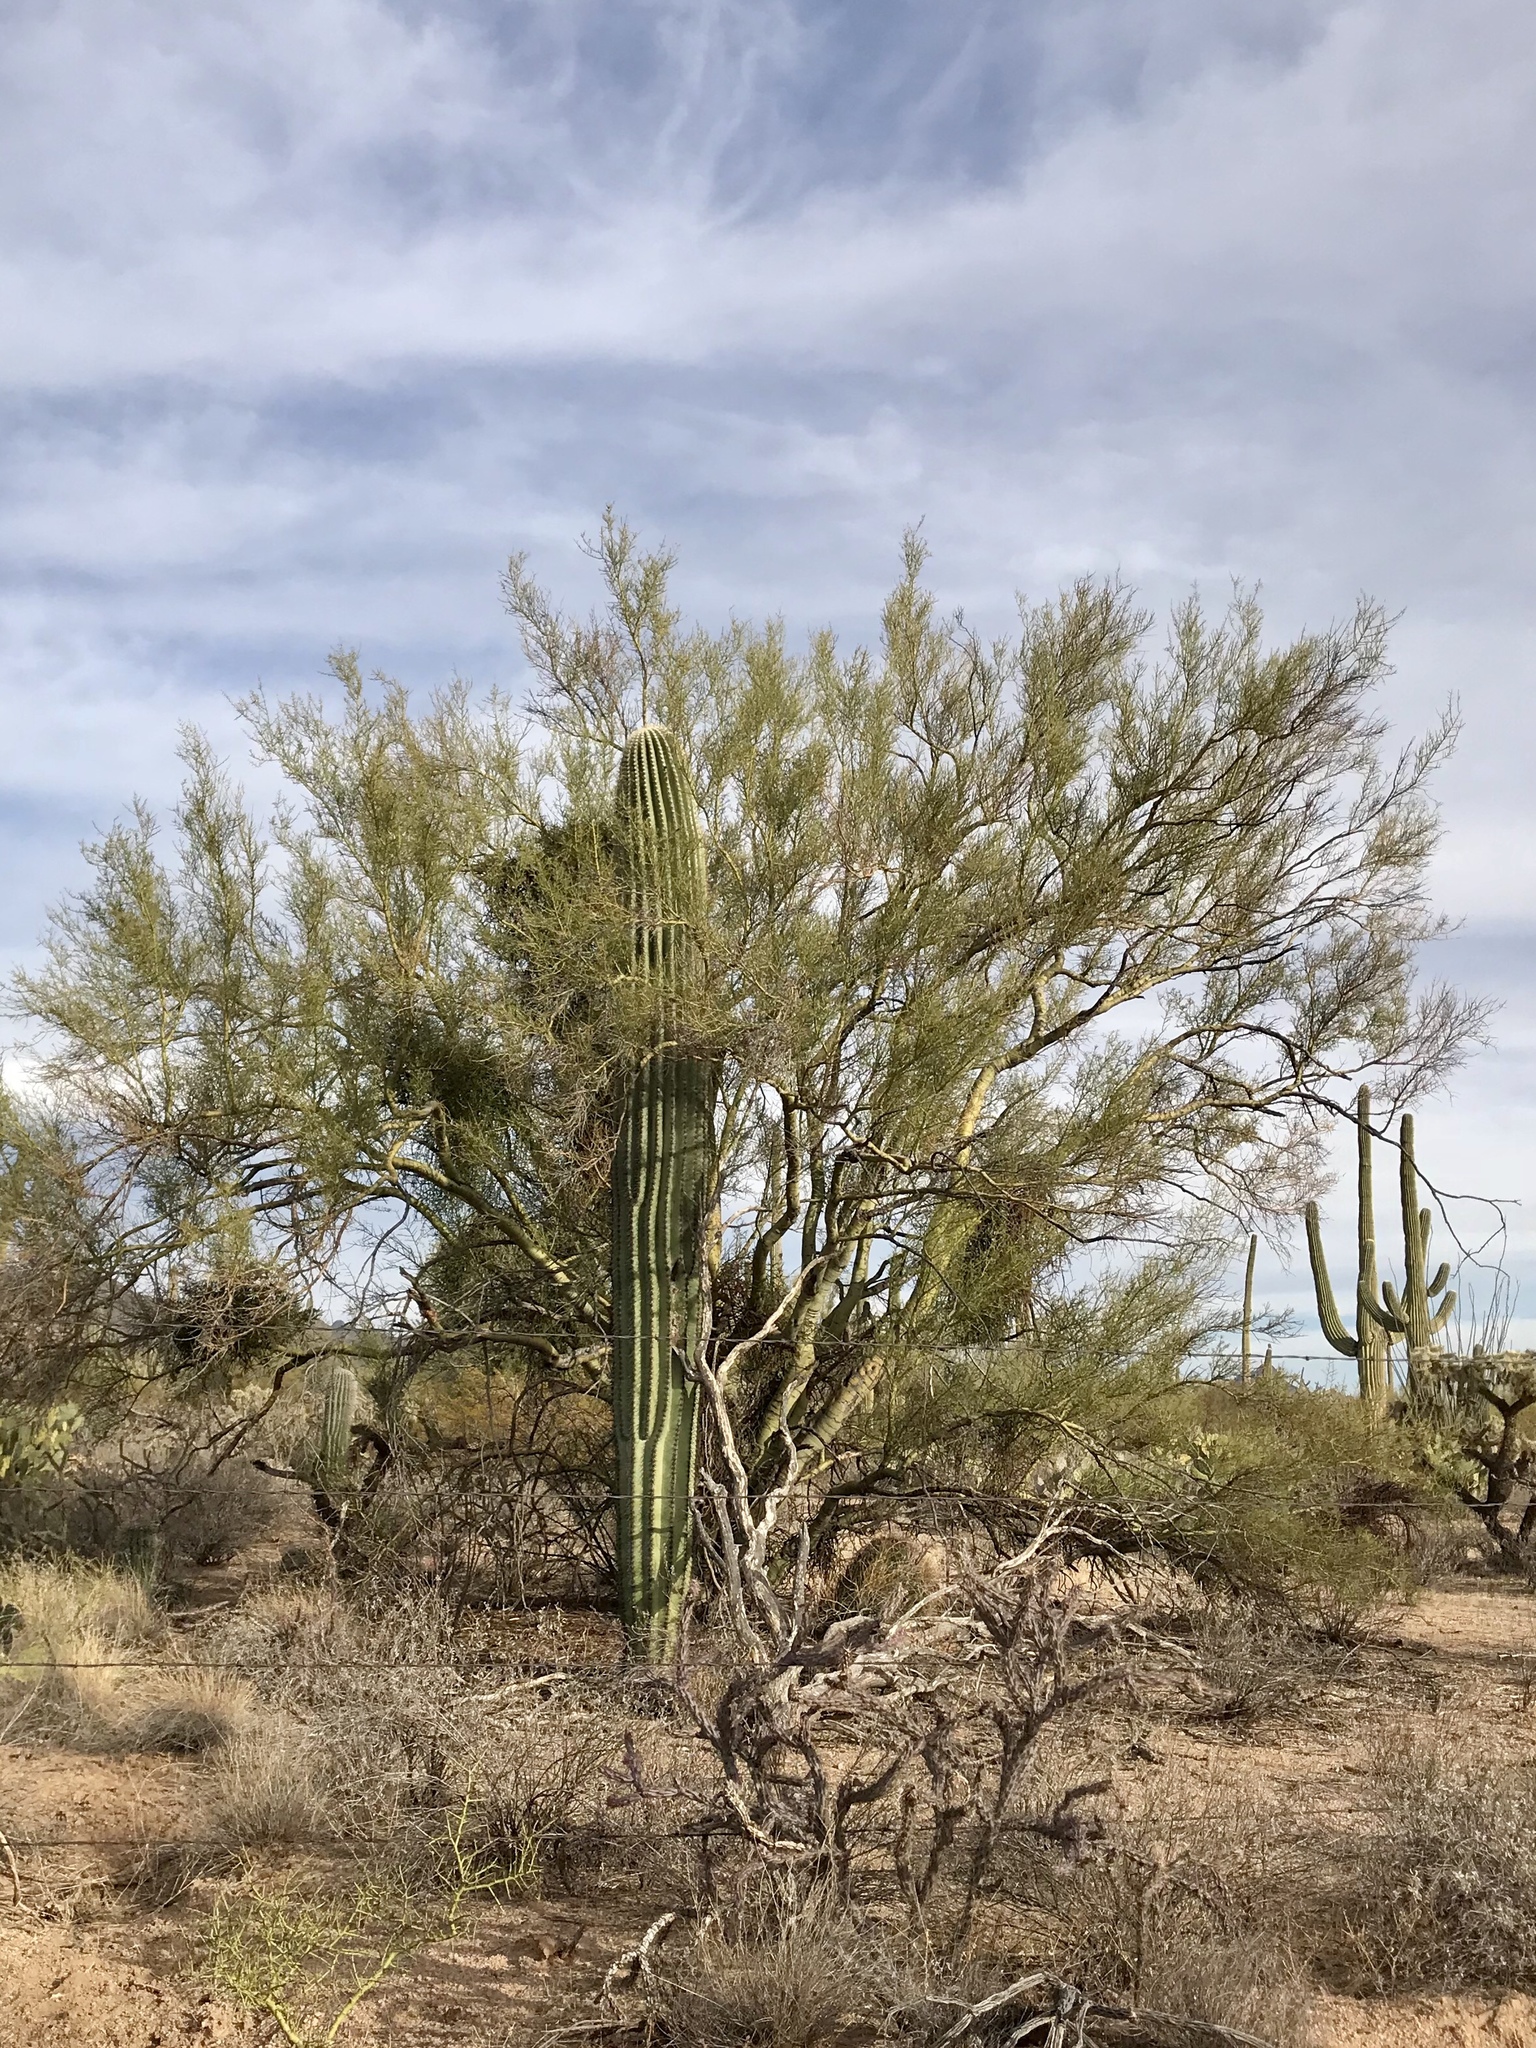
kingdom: Plantae
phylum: Tracheophyta
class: Magnoliopsida
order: Fabales
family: Fabaceae
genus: Parkinsonia
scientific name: Parkinsonia microphylla
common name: Yellow paloverde
